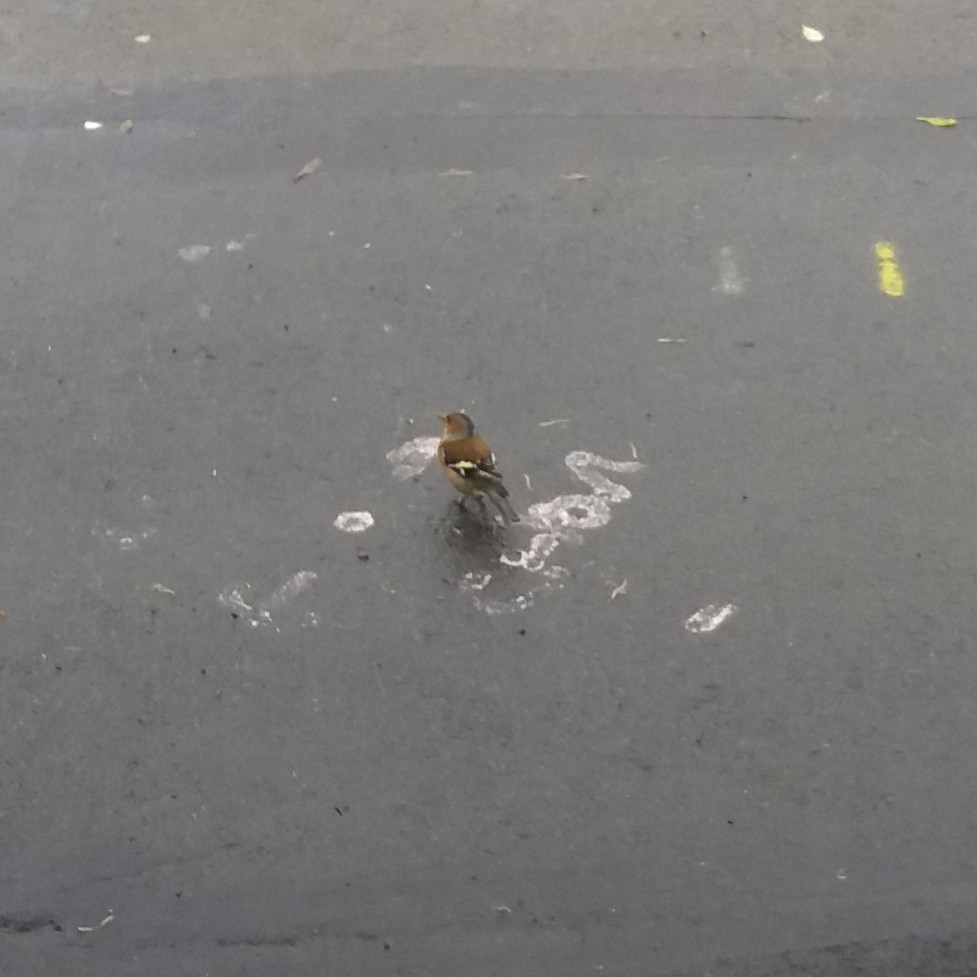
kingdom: Animalia
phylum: Chordata
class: Aves
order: Passeriformes
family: Fringillidae
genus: Fringilla
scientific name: Fringilla coelebs
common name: Common chaffinch
